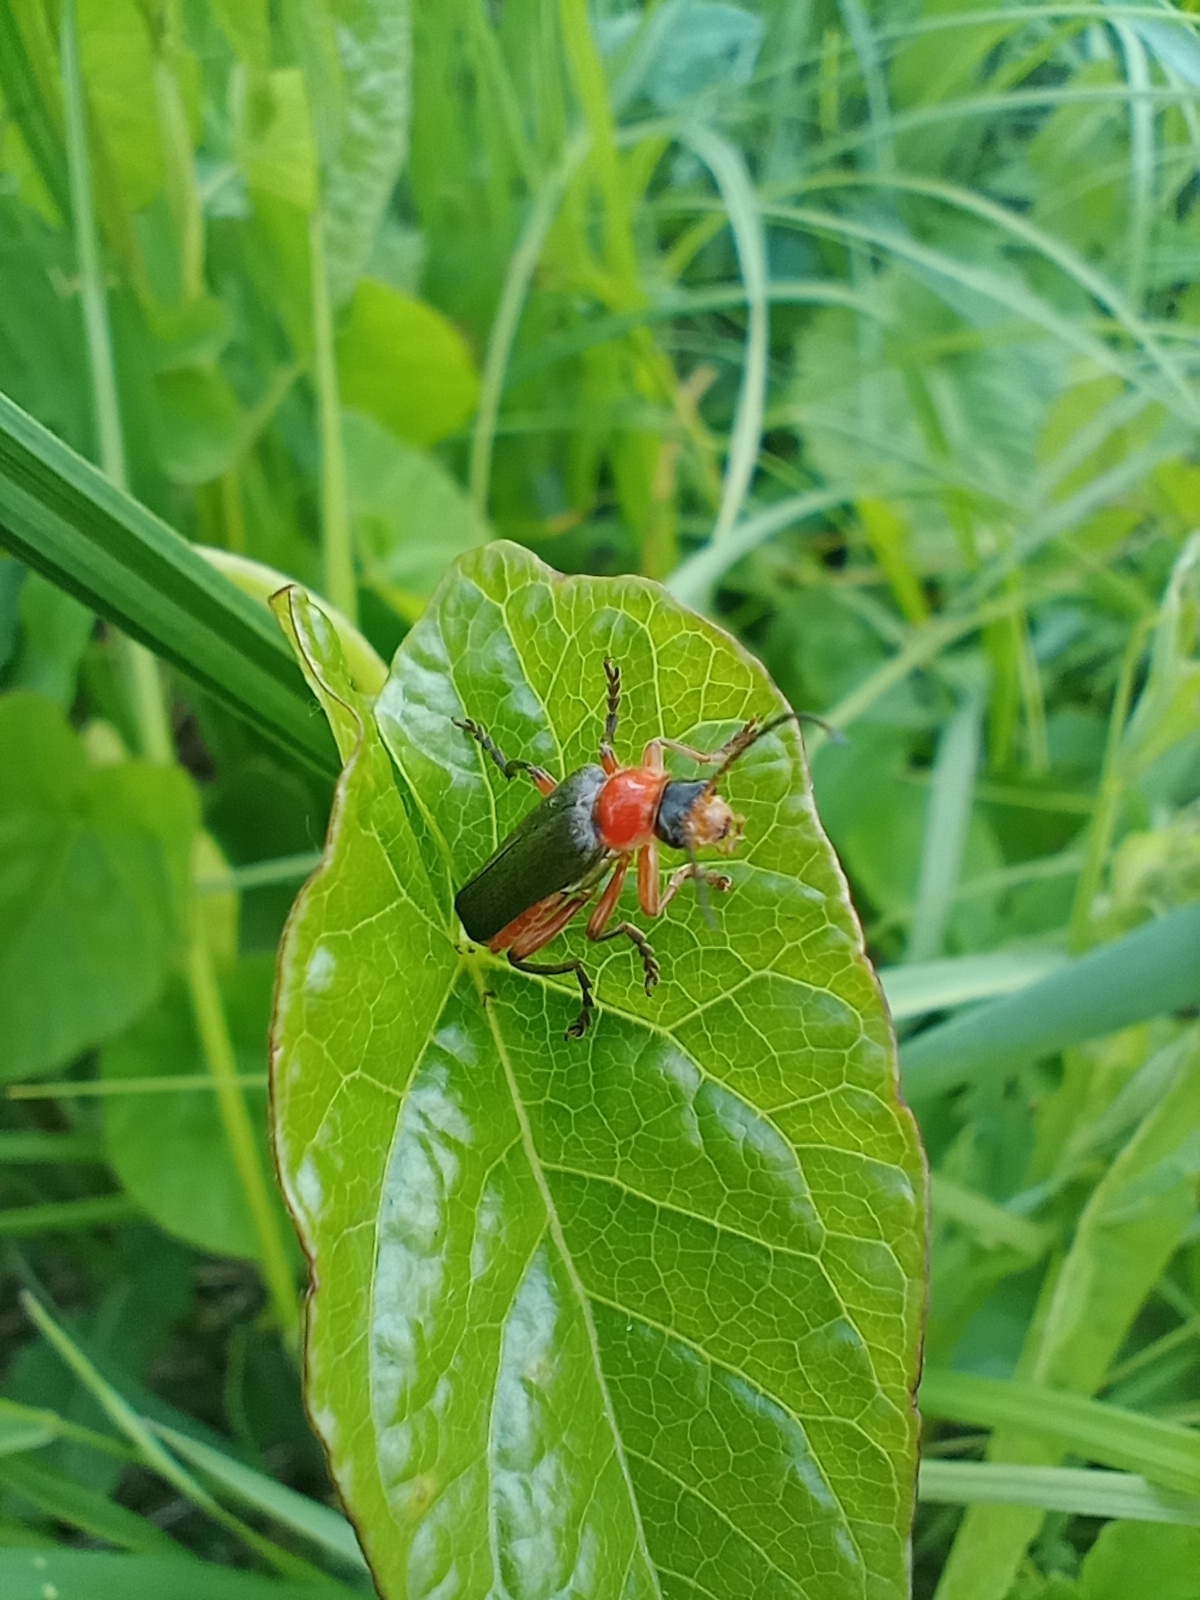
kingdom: Animalia
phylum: Arthropoda
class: Insecta
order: Coleoptera
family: Cantharidae
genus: Cantharis
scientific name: Cantharis pellucida
